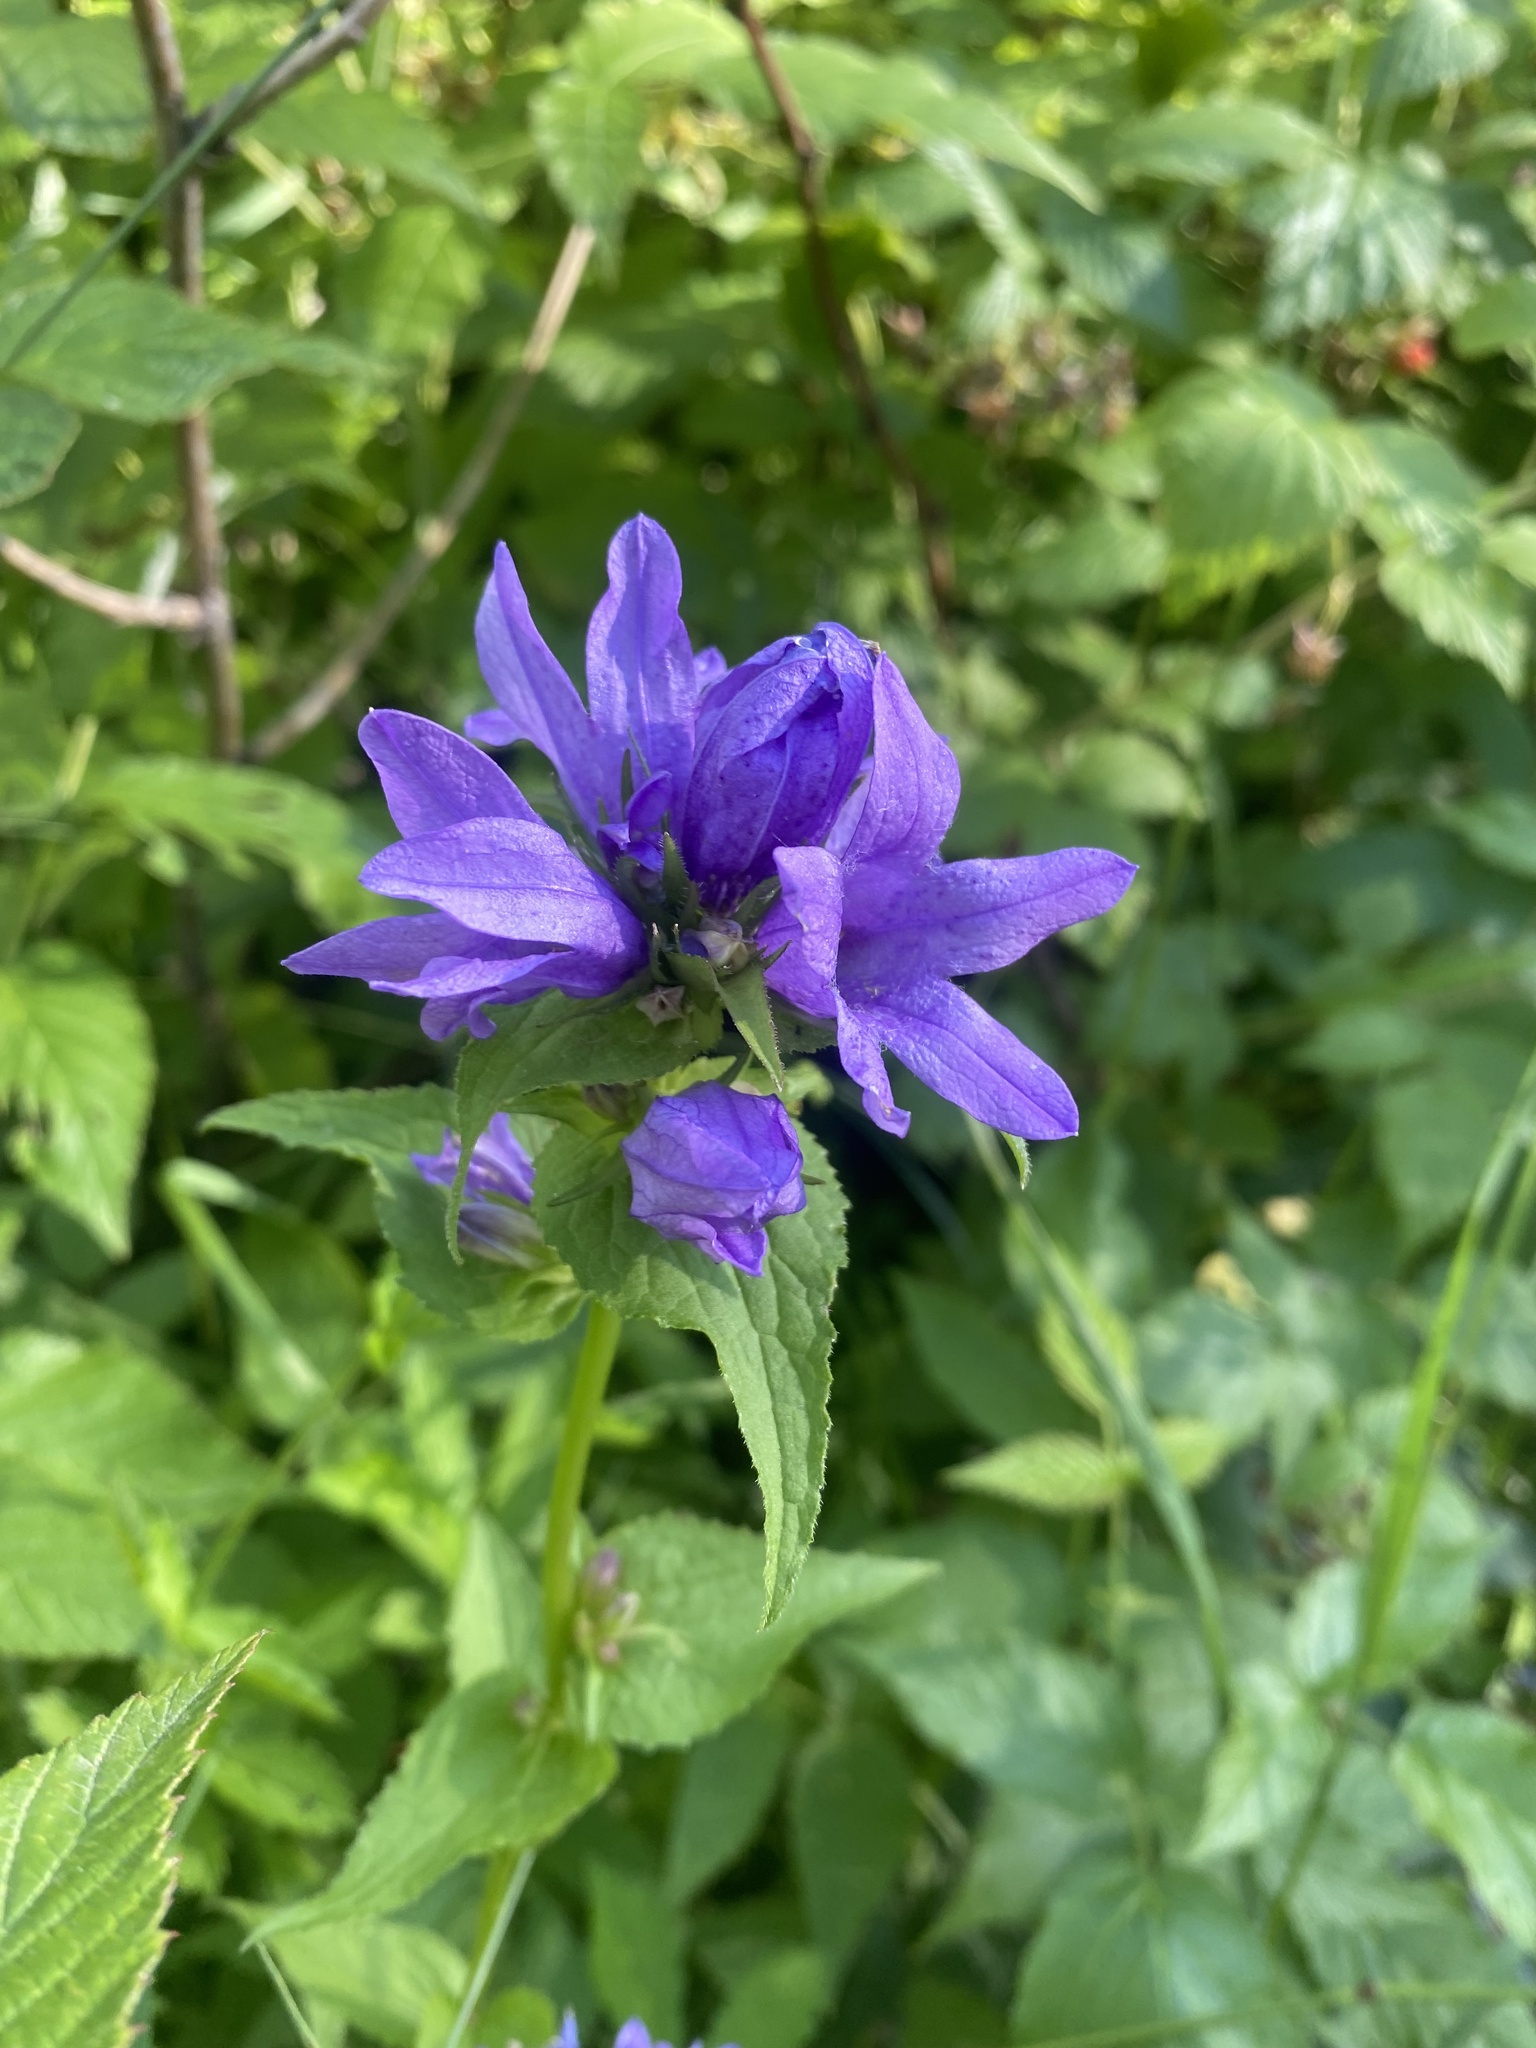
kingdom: Plantae
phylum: Tracheophyta
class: Magnoliopsida
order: Asterales
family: Campanulaceae
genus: Campanula
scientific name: Campanula glomerata
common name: Clustered bellflower
